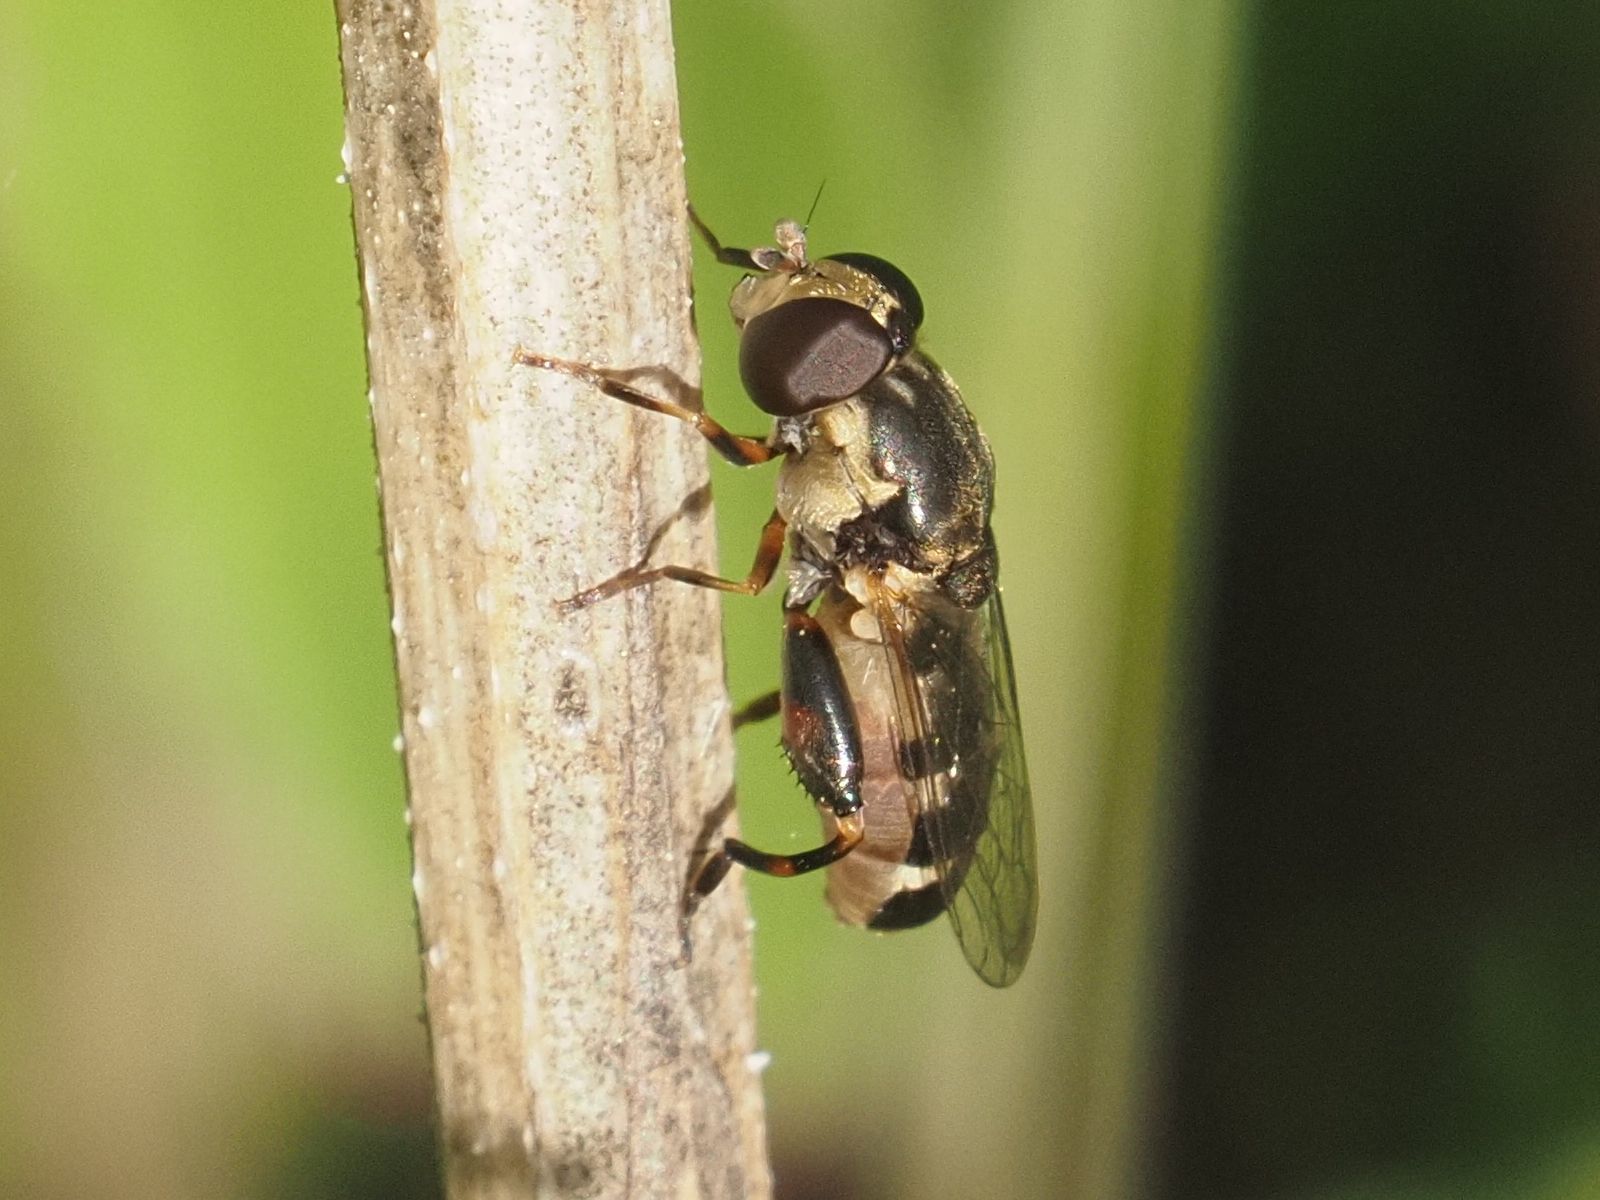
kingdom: Animalia
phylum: Arthropoda
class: Insecta
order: Diptera
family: Syrphidae
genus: Syritta
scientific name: Syritta pipiens
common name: Hover fly
